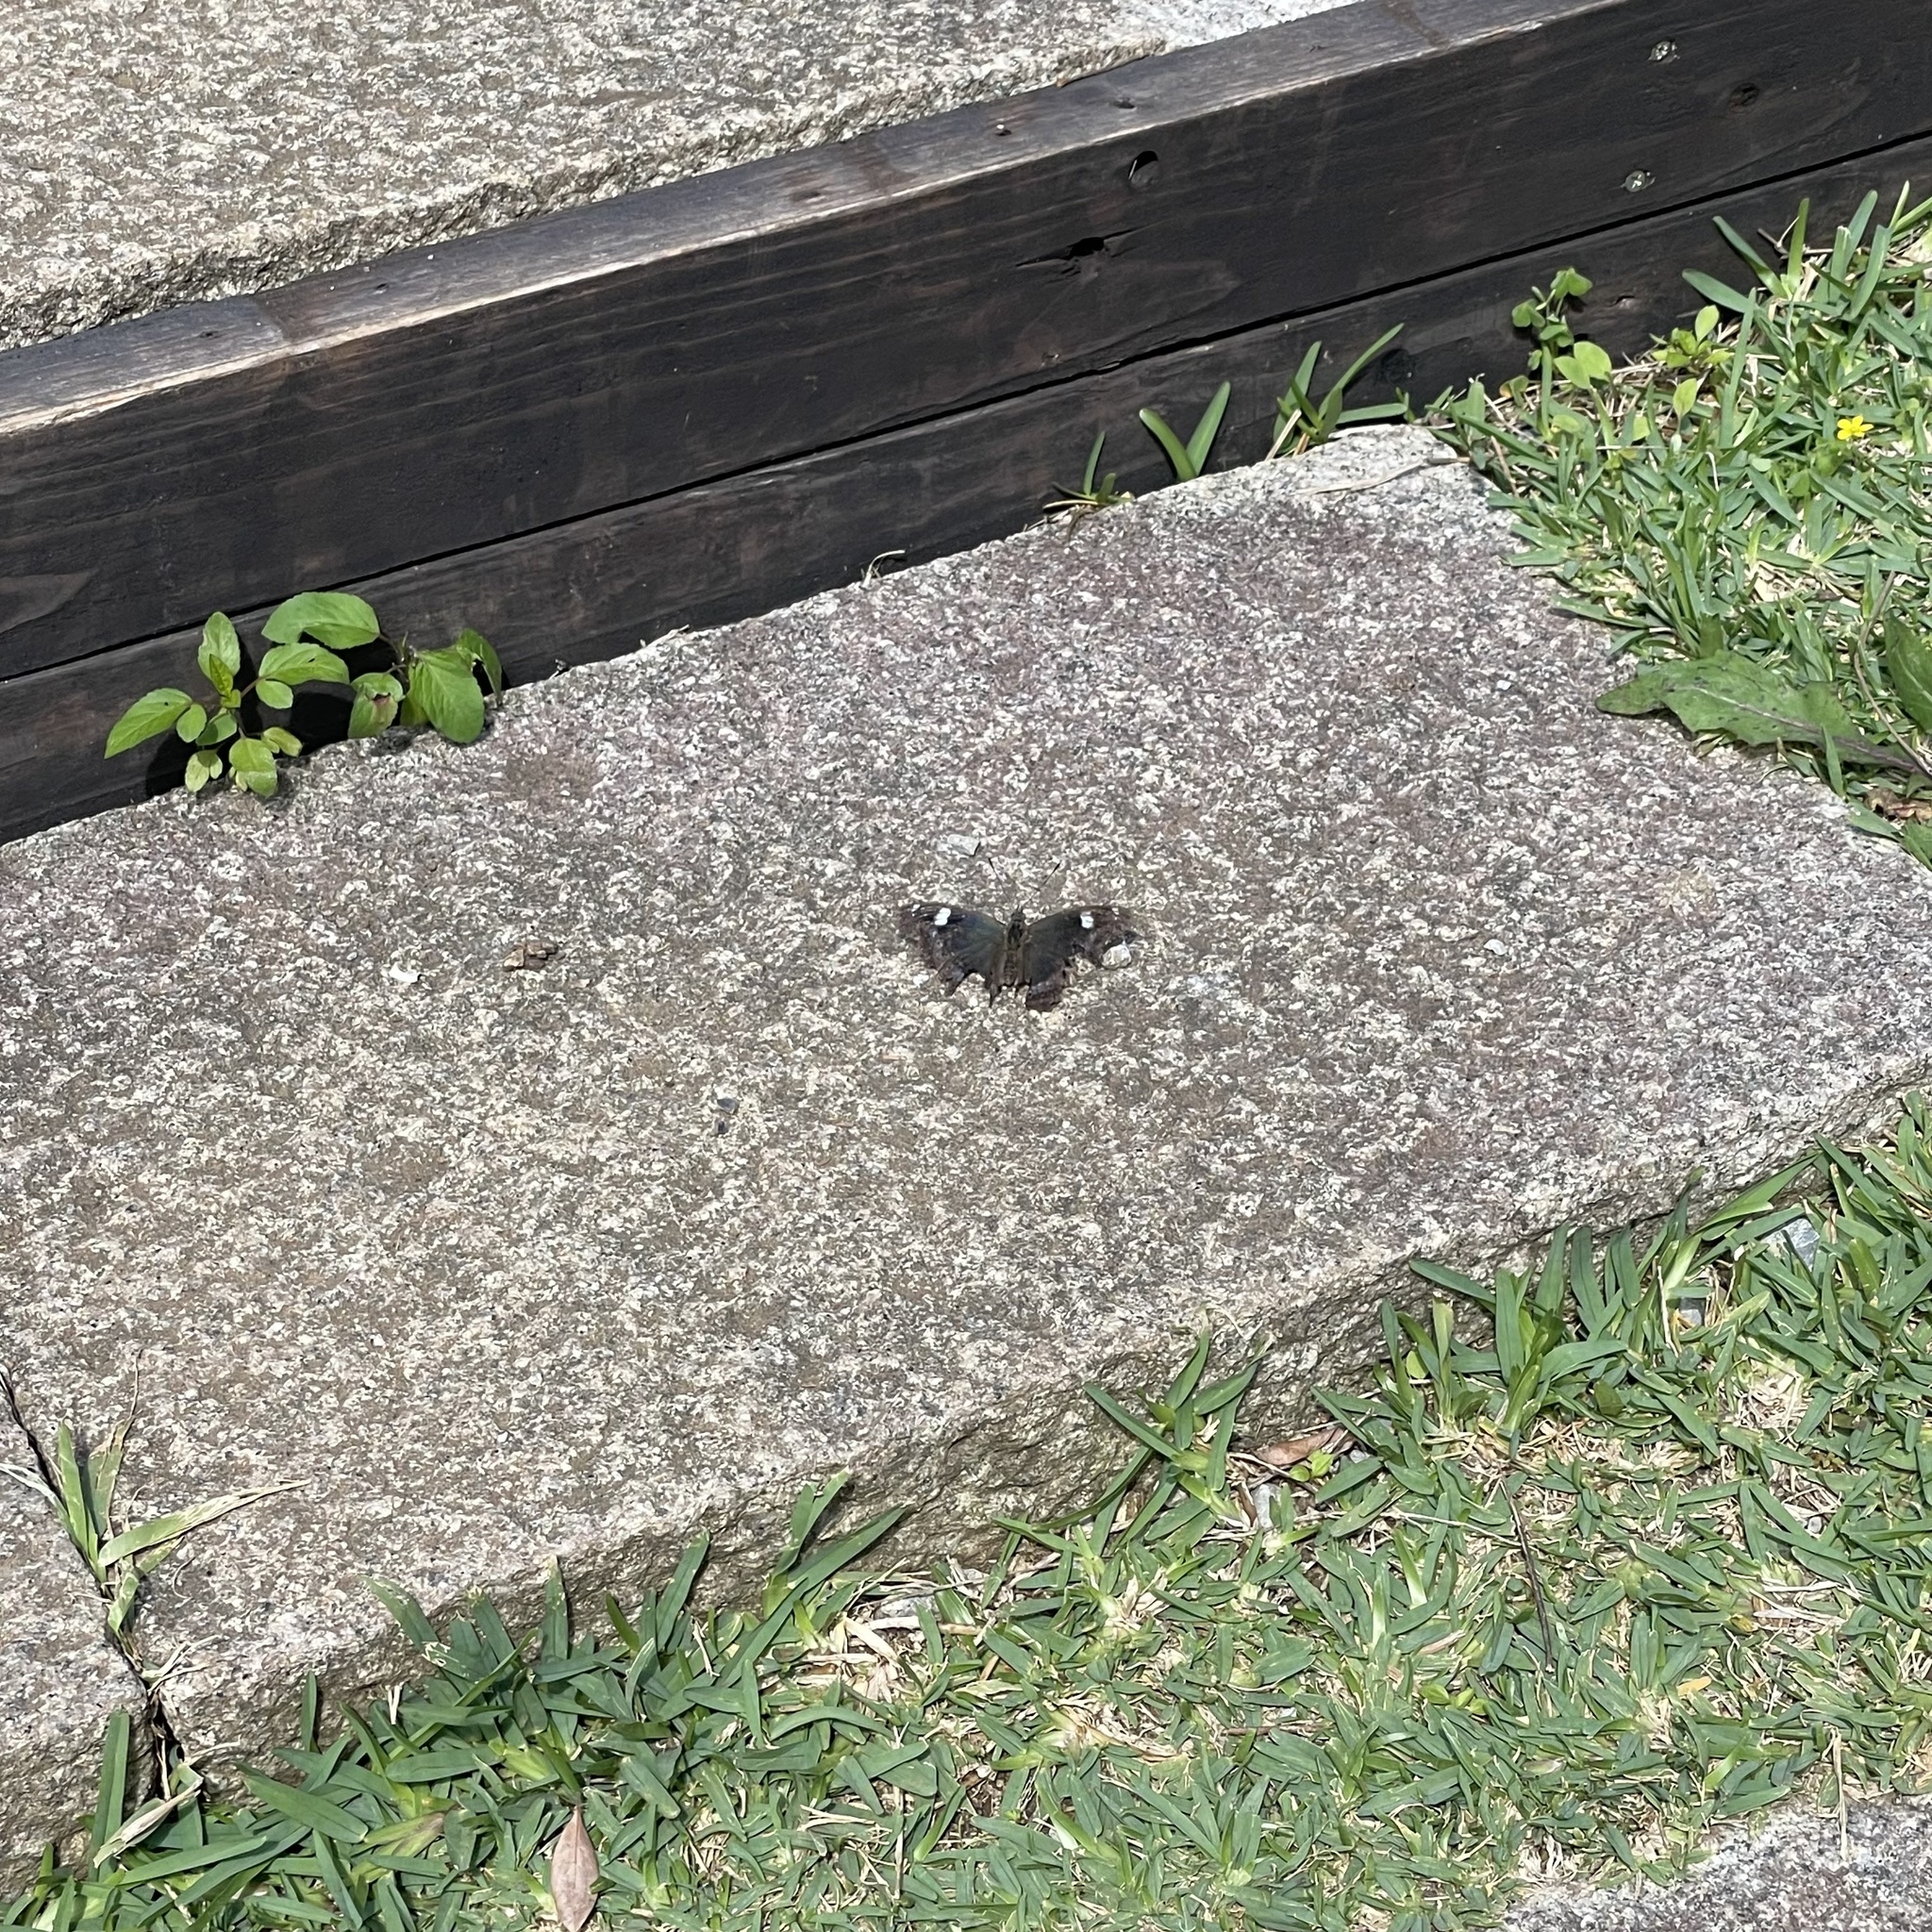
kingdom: Animalia
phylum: Arthropoda
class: Insecta
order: Lepidoptera
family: Nymphalidae
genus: Vanessa
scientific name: Vanessa Kaniska canace
